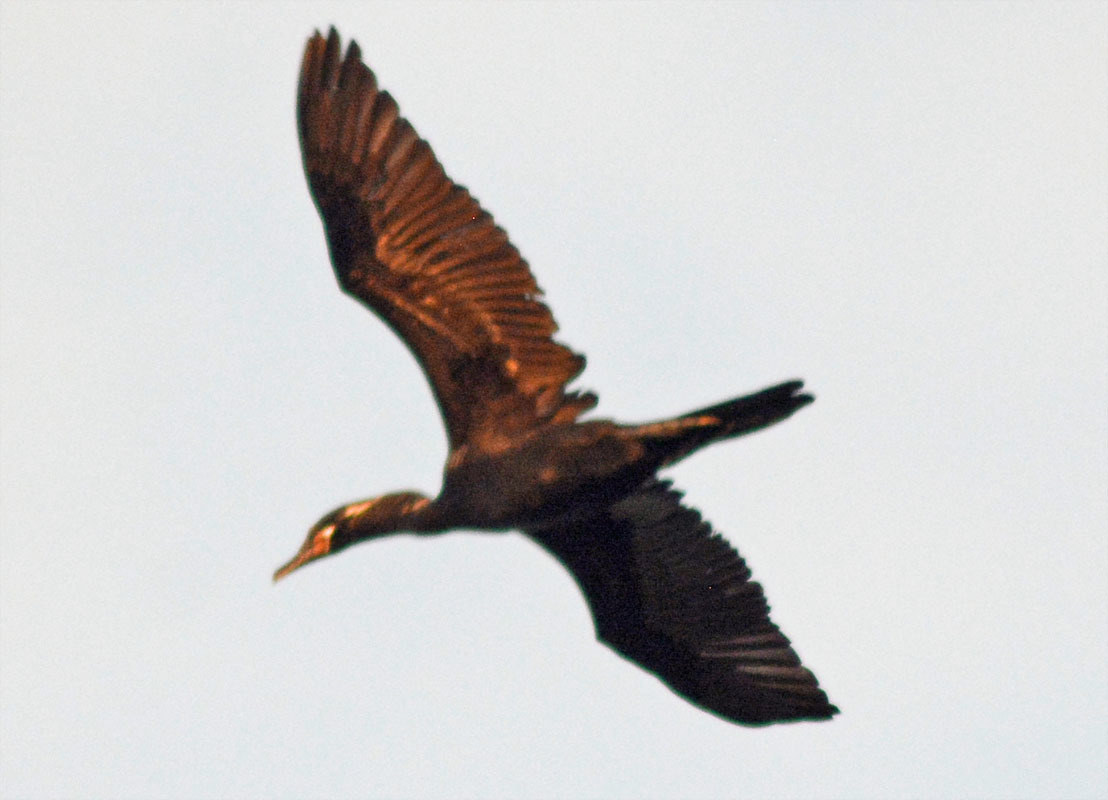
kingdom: Animalia
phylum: Chordata
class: Aves
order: Suliformes
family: Phalacrocoracidae
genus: Phalacrocorax
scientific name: Phalacrocorax brasilianus
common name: Neotropic cormorant
